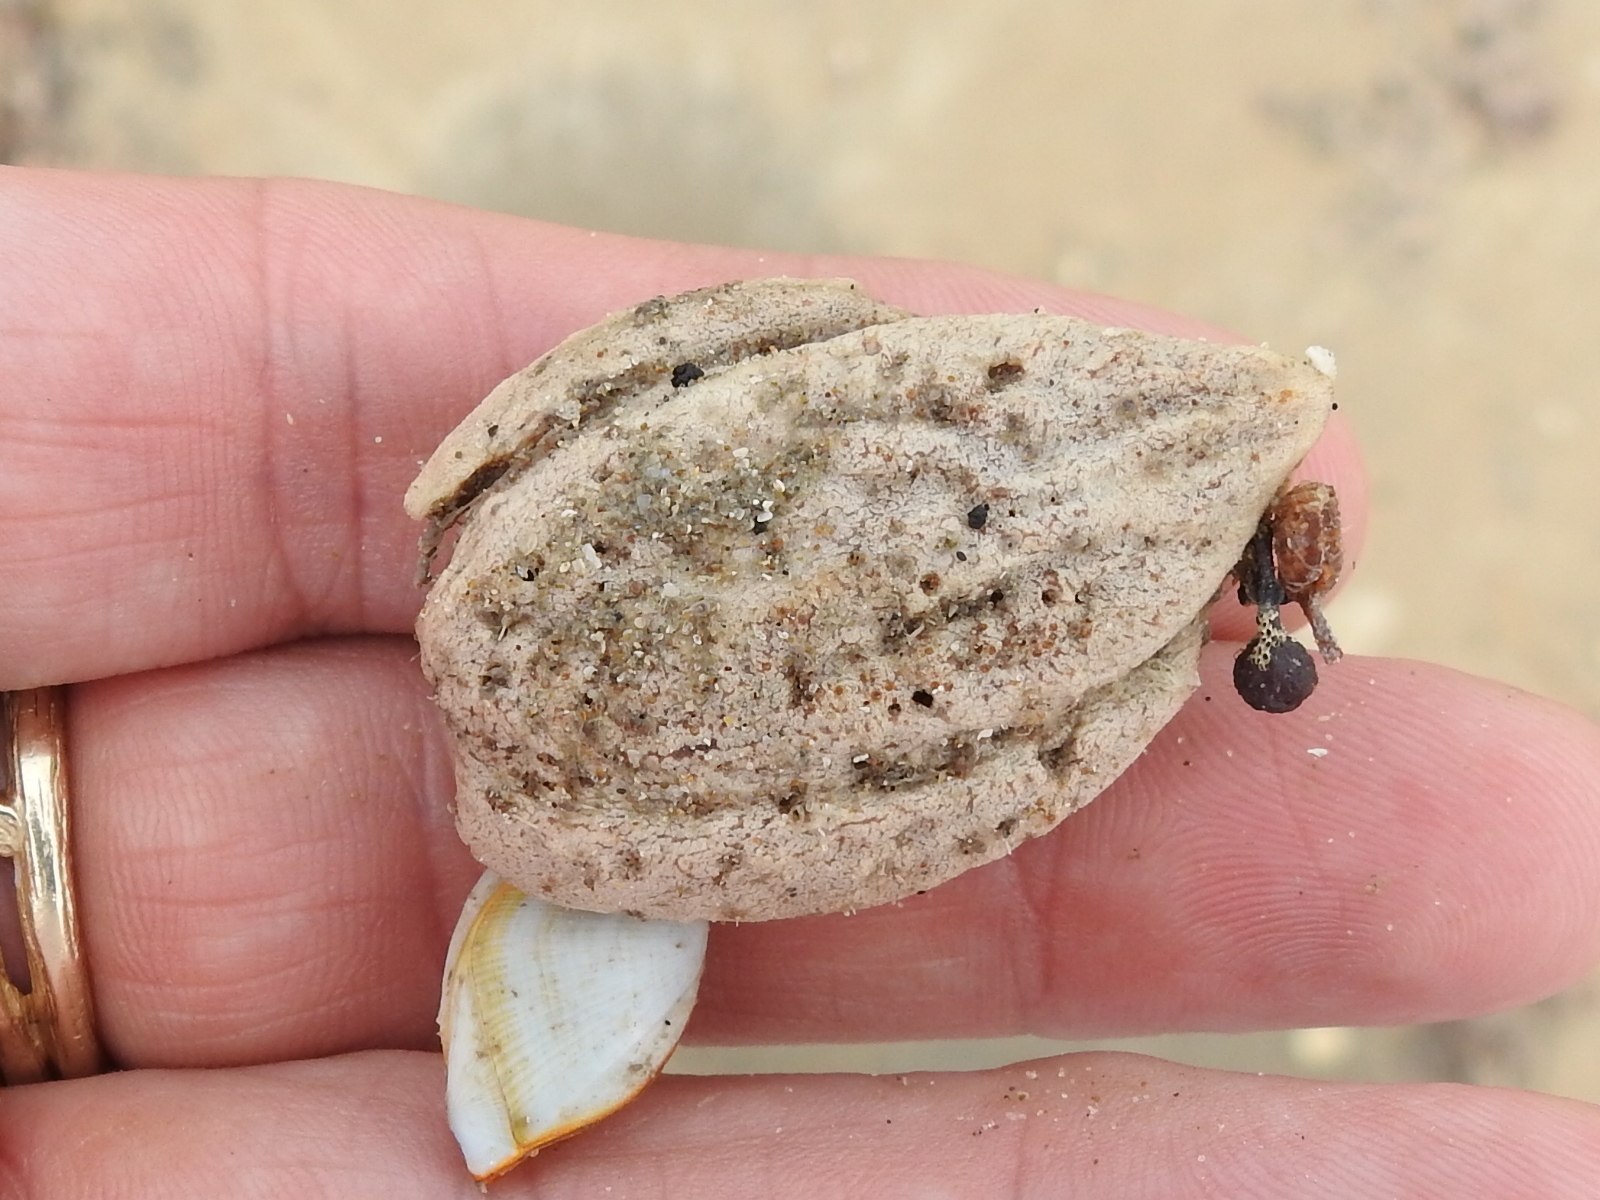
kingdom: Plantae
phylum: Tracheophyta
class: Magnoliopsida
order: Myrtales
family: Combretaceae
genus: Terminalia
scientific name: Terminalia catappa
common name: Tropical almond
